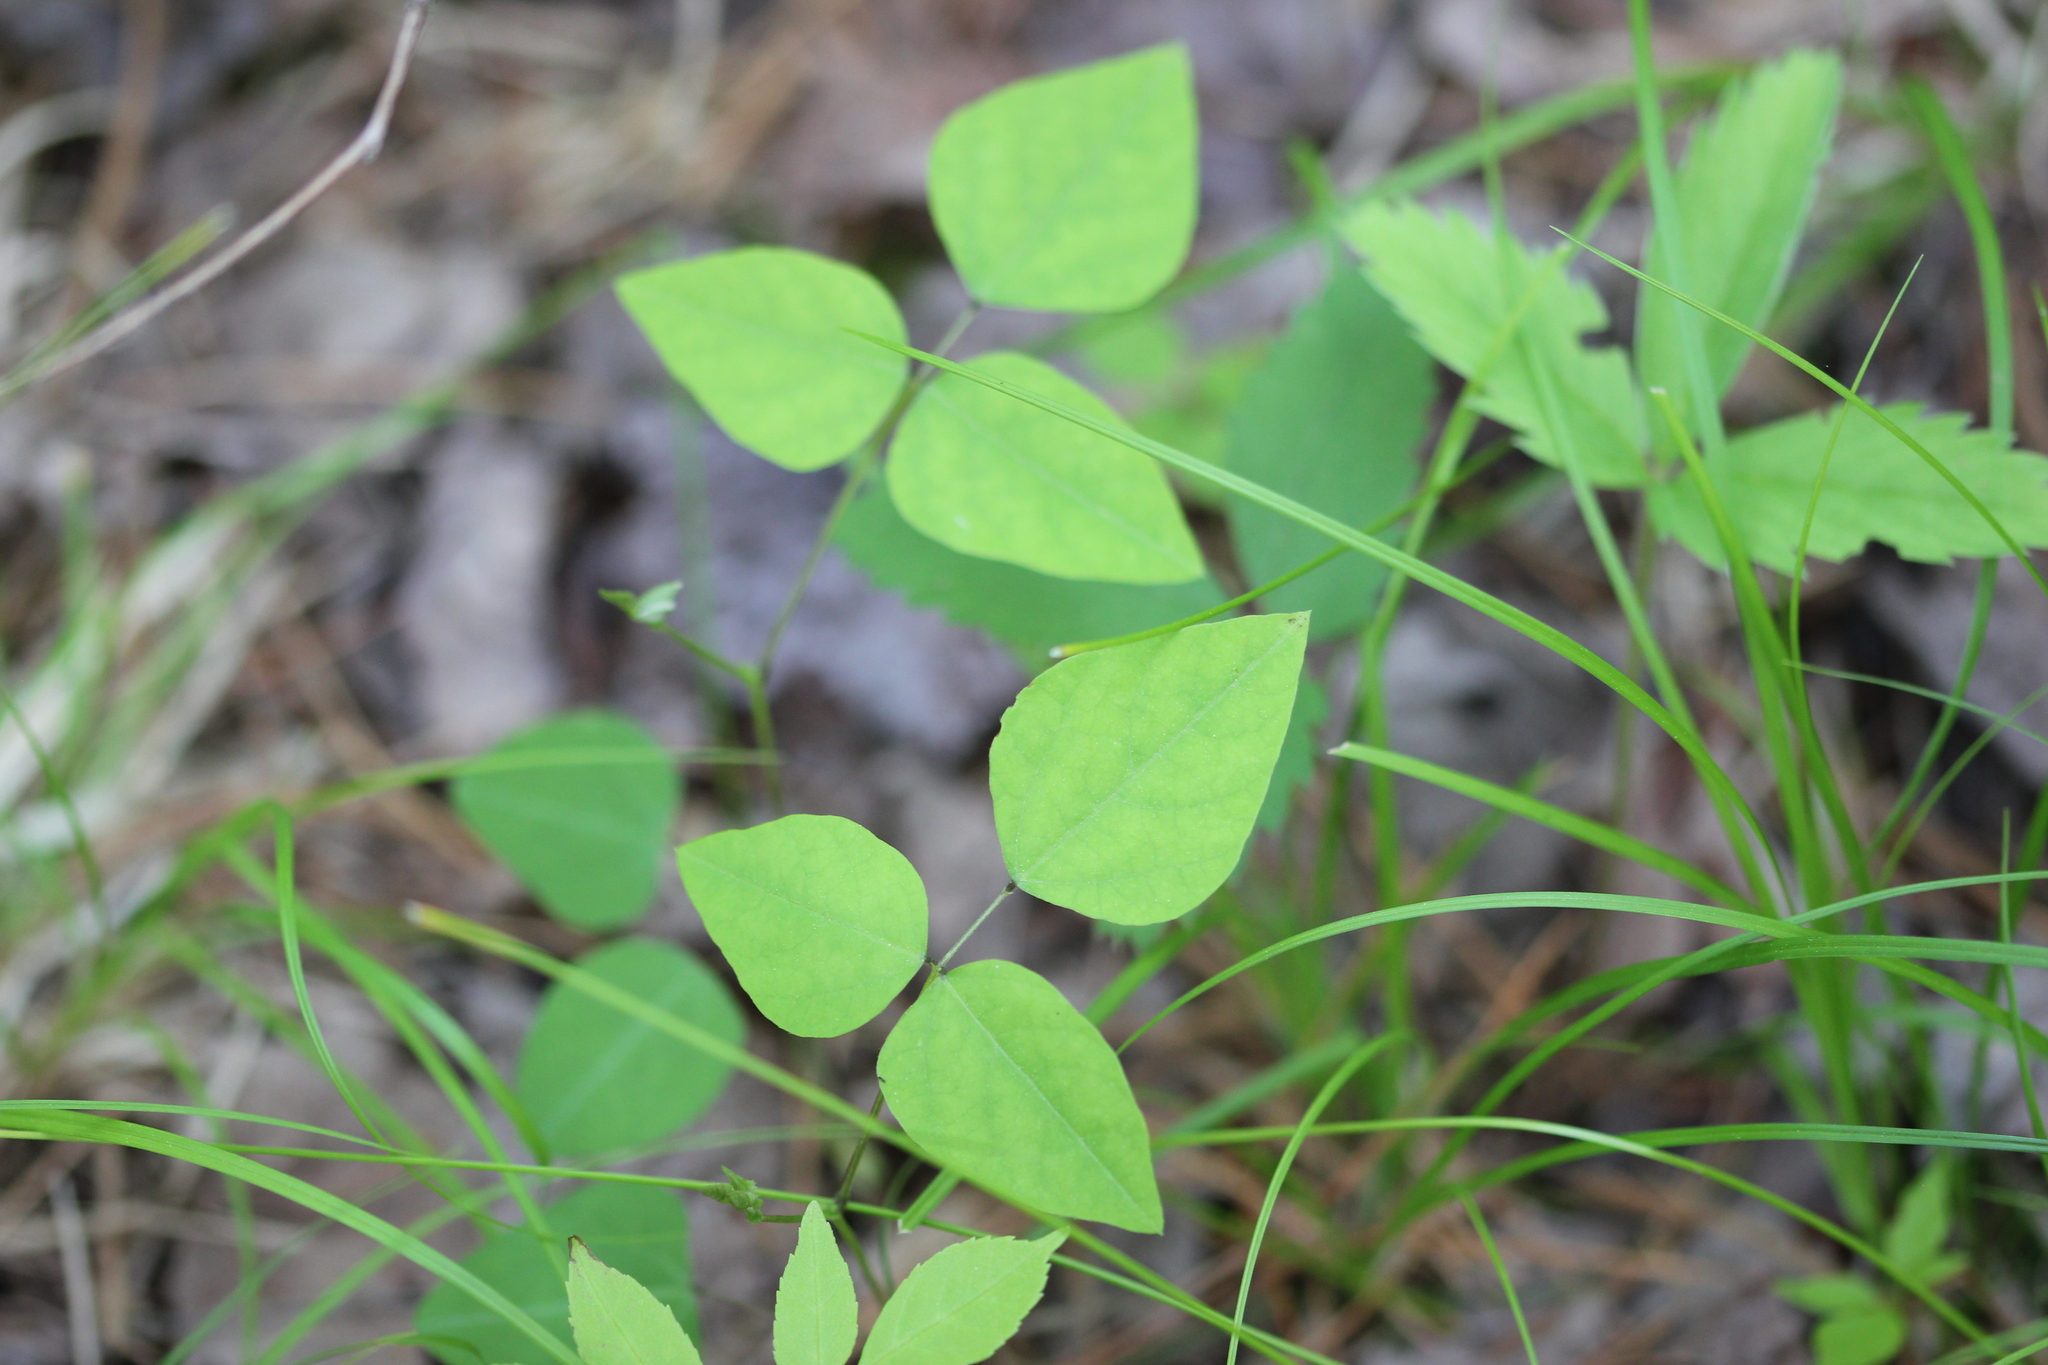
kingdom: Plantae
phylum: Tracheophyta
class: Magnoliopsida
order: Fabales
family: Fabaceae
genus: Amphicarpaea
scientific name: Amphicarpaea bracteata
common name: American hog peanut
